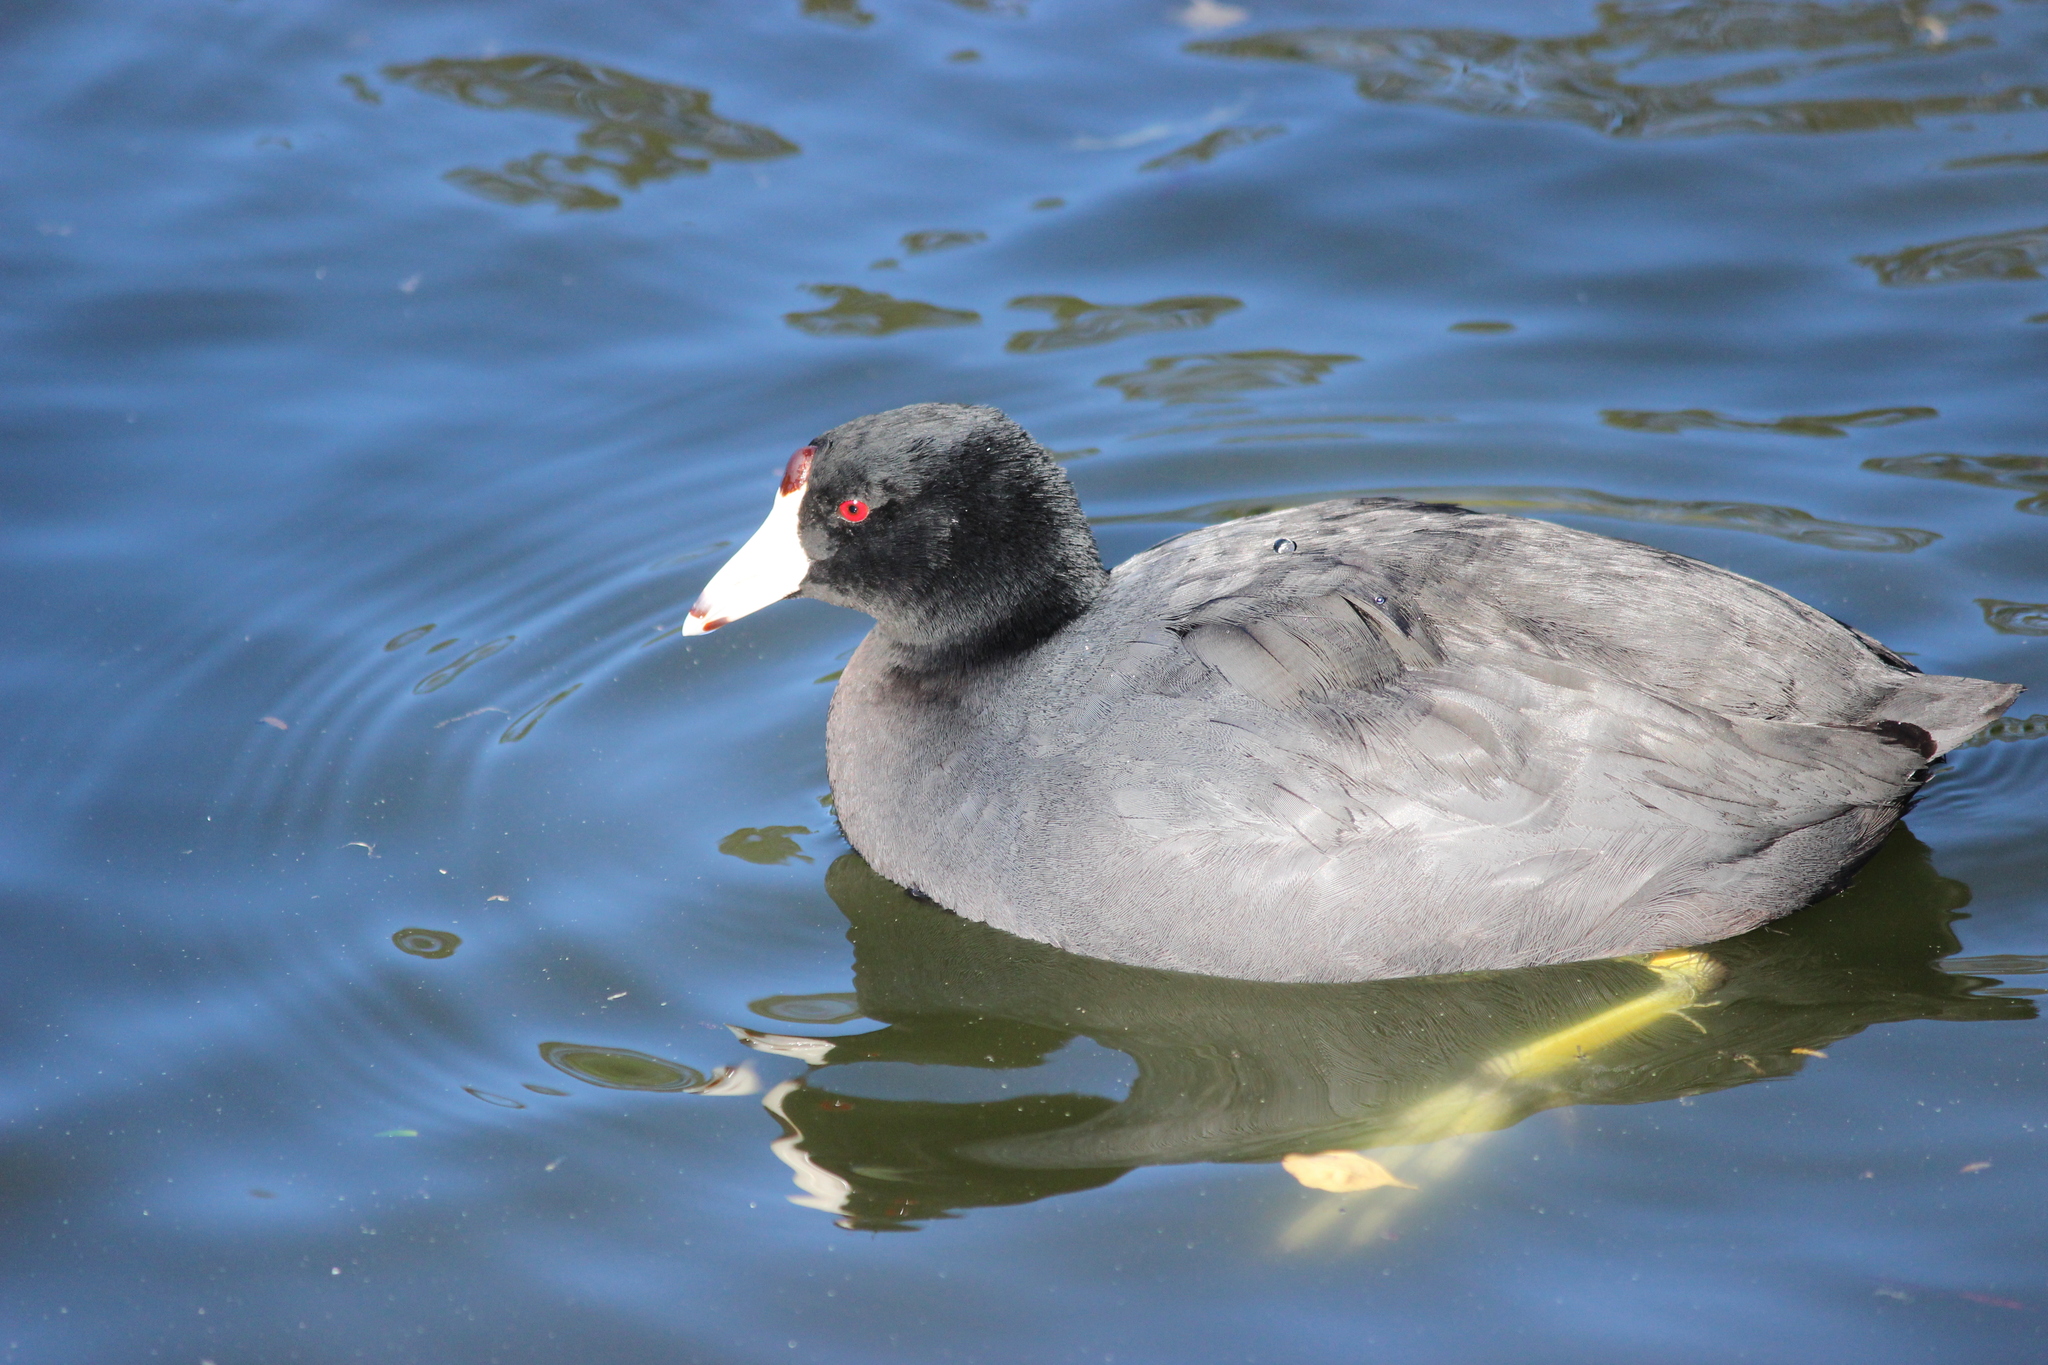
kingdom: Animalia
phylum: Chordata
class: Aves
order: Gruiformes
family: Rallidae
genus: Fulica
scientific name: Fulica americana
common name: American coot
